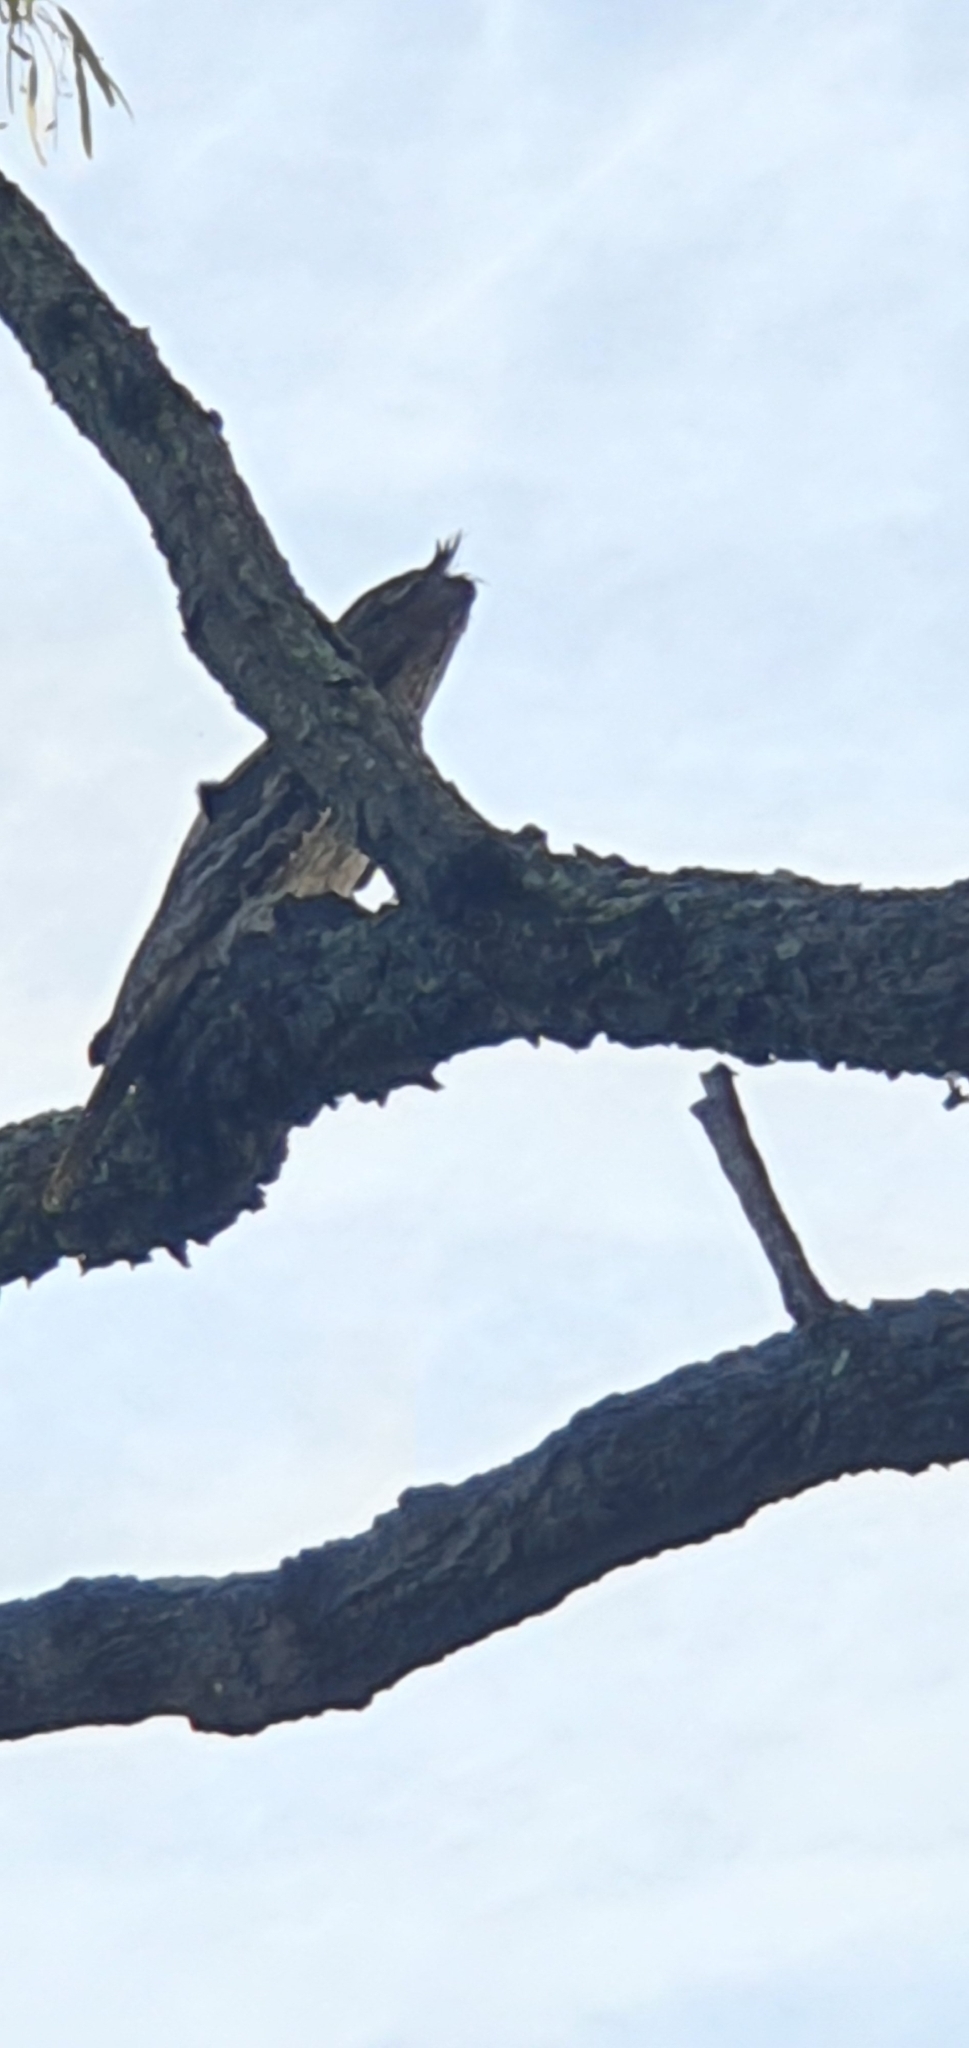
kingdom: Animalia
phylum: Chordata
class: Aves
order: Caprimulgiformes
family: Podargidae
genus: Podargus
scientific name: Podargus strigoides
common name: Tawny frogmouth
